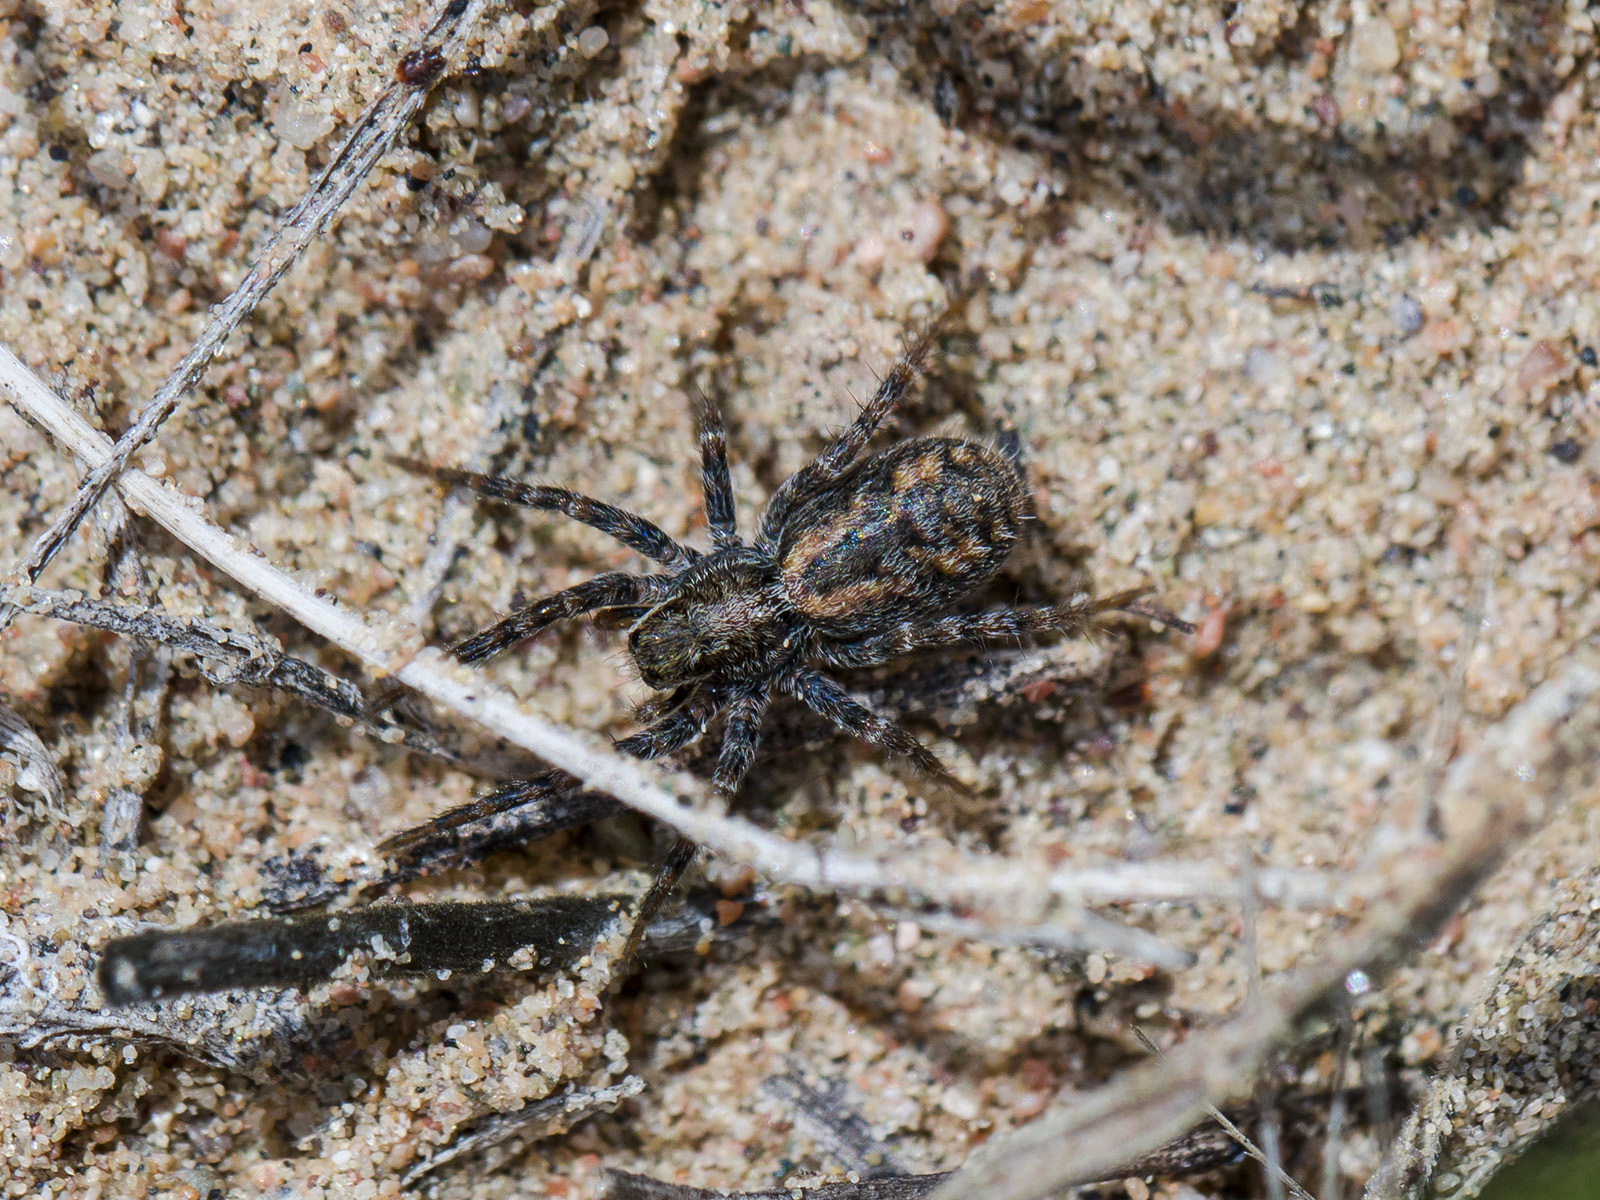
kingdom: Animalia
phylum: Arthropoda
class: Arachnida
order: Araneae
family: Lycosidae
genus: Lycosa
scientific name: Lycosa praegrandis
